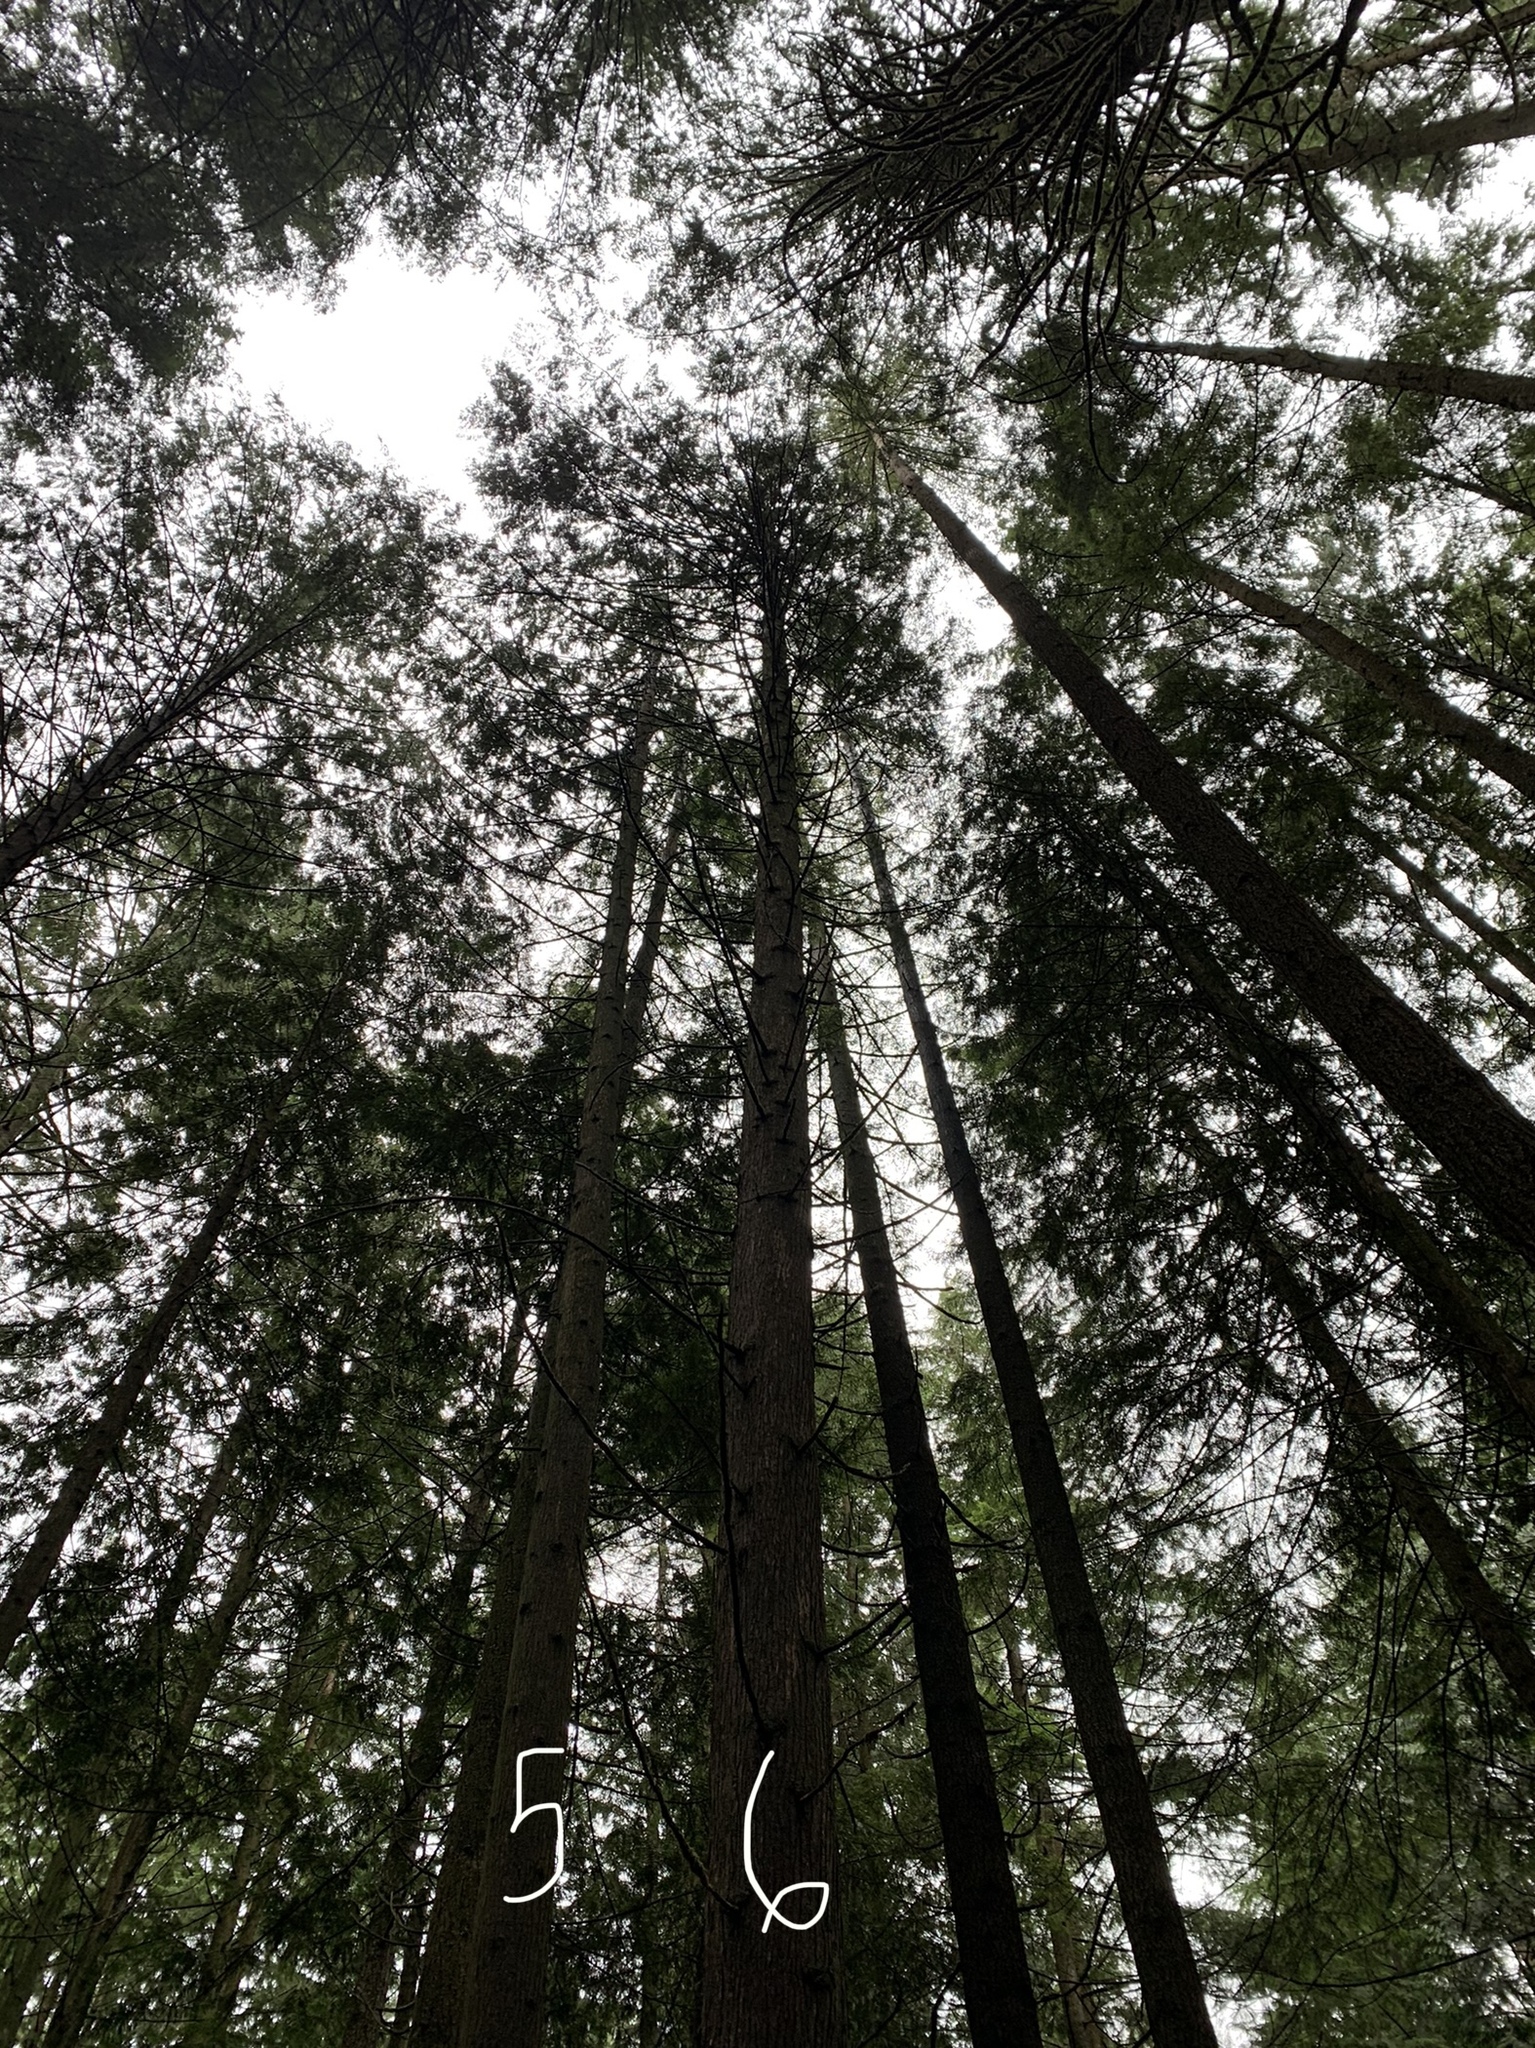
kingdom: Plantae
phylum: Tracheophyta
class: Pinopsida
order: Pinales
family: Cupressaceae
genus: Thuja
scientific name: Thuja plicata
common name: Western red-cedar
